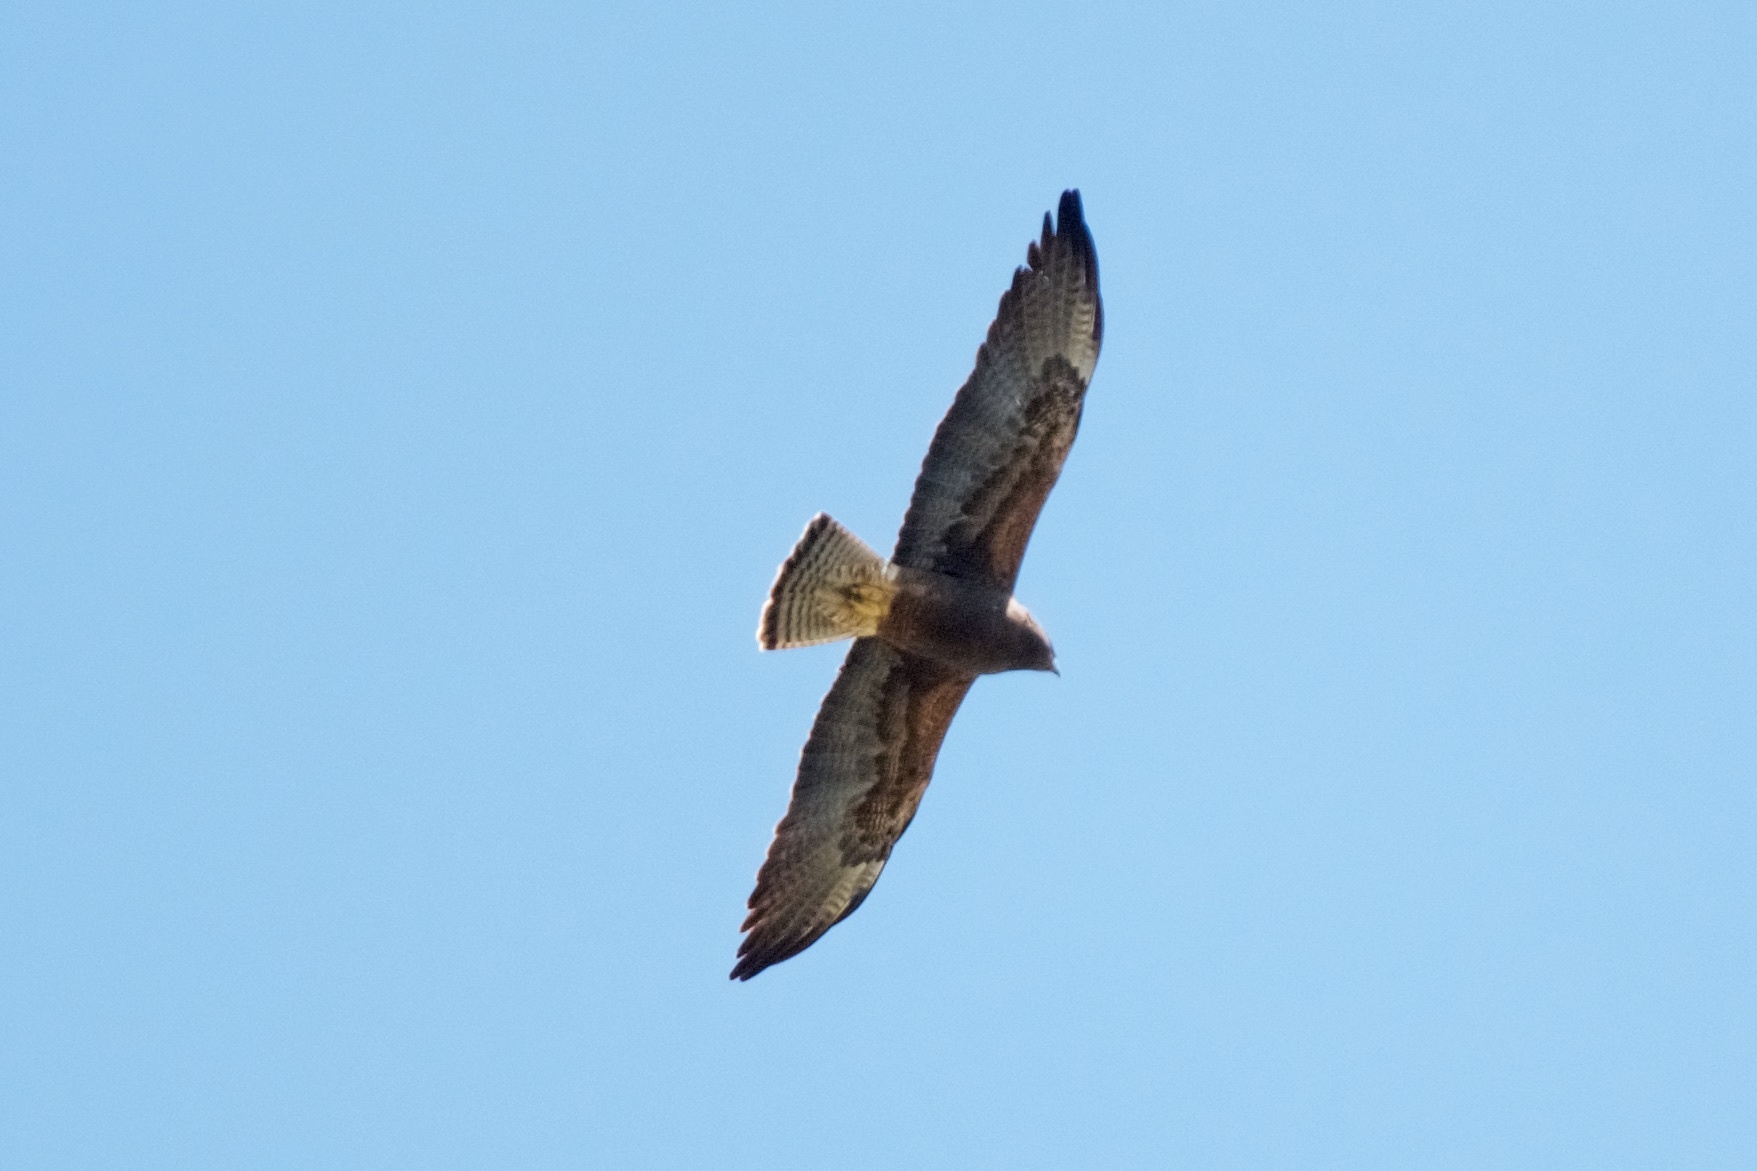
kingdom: Animalia
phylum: Chordata
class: Aves
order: Accipitriformes
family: Accipitridae
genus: Buteo
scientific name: Buteo swainsoni
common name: Swainson's hawk
